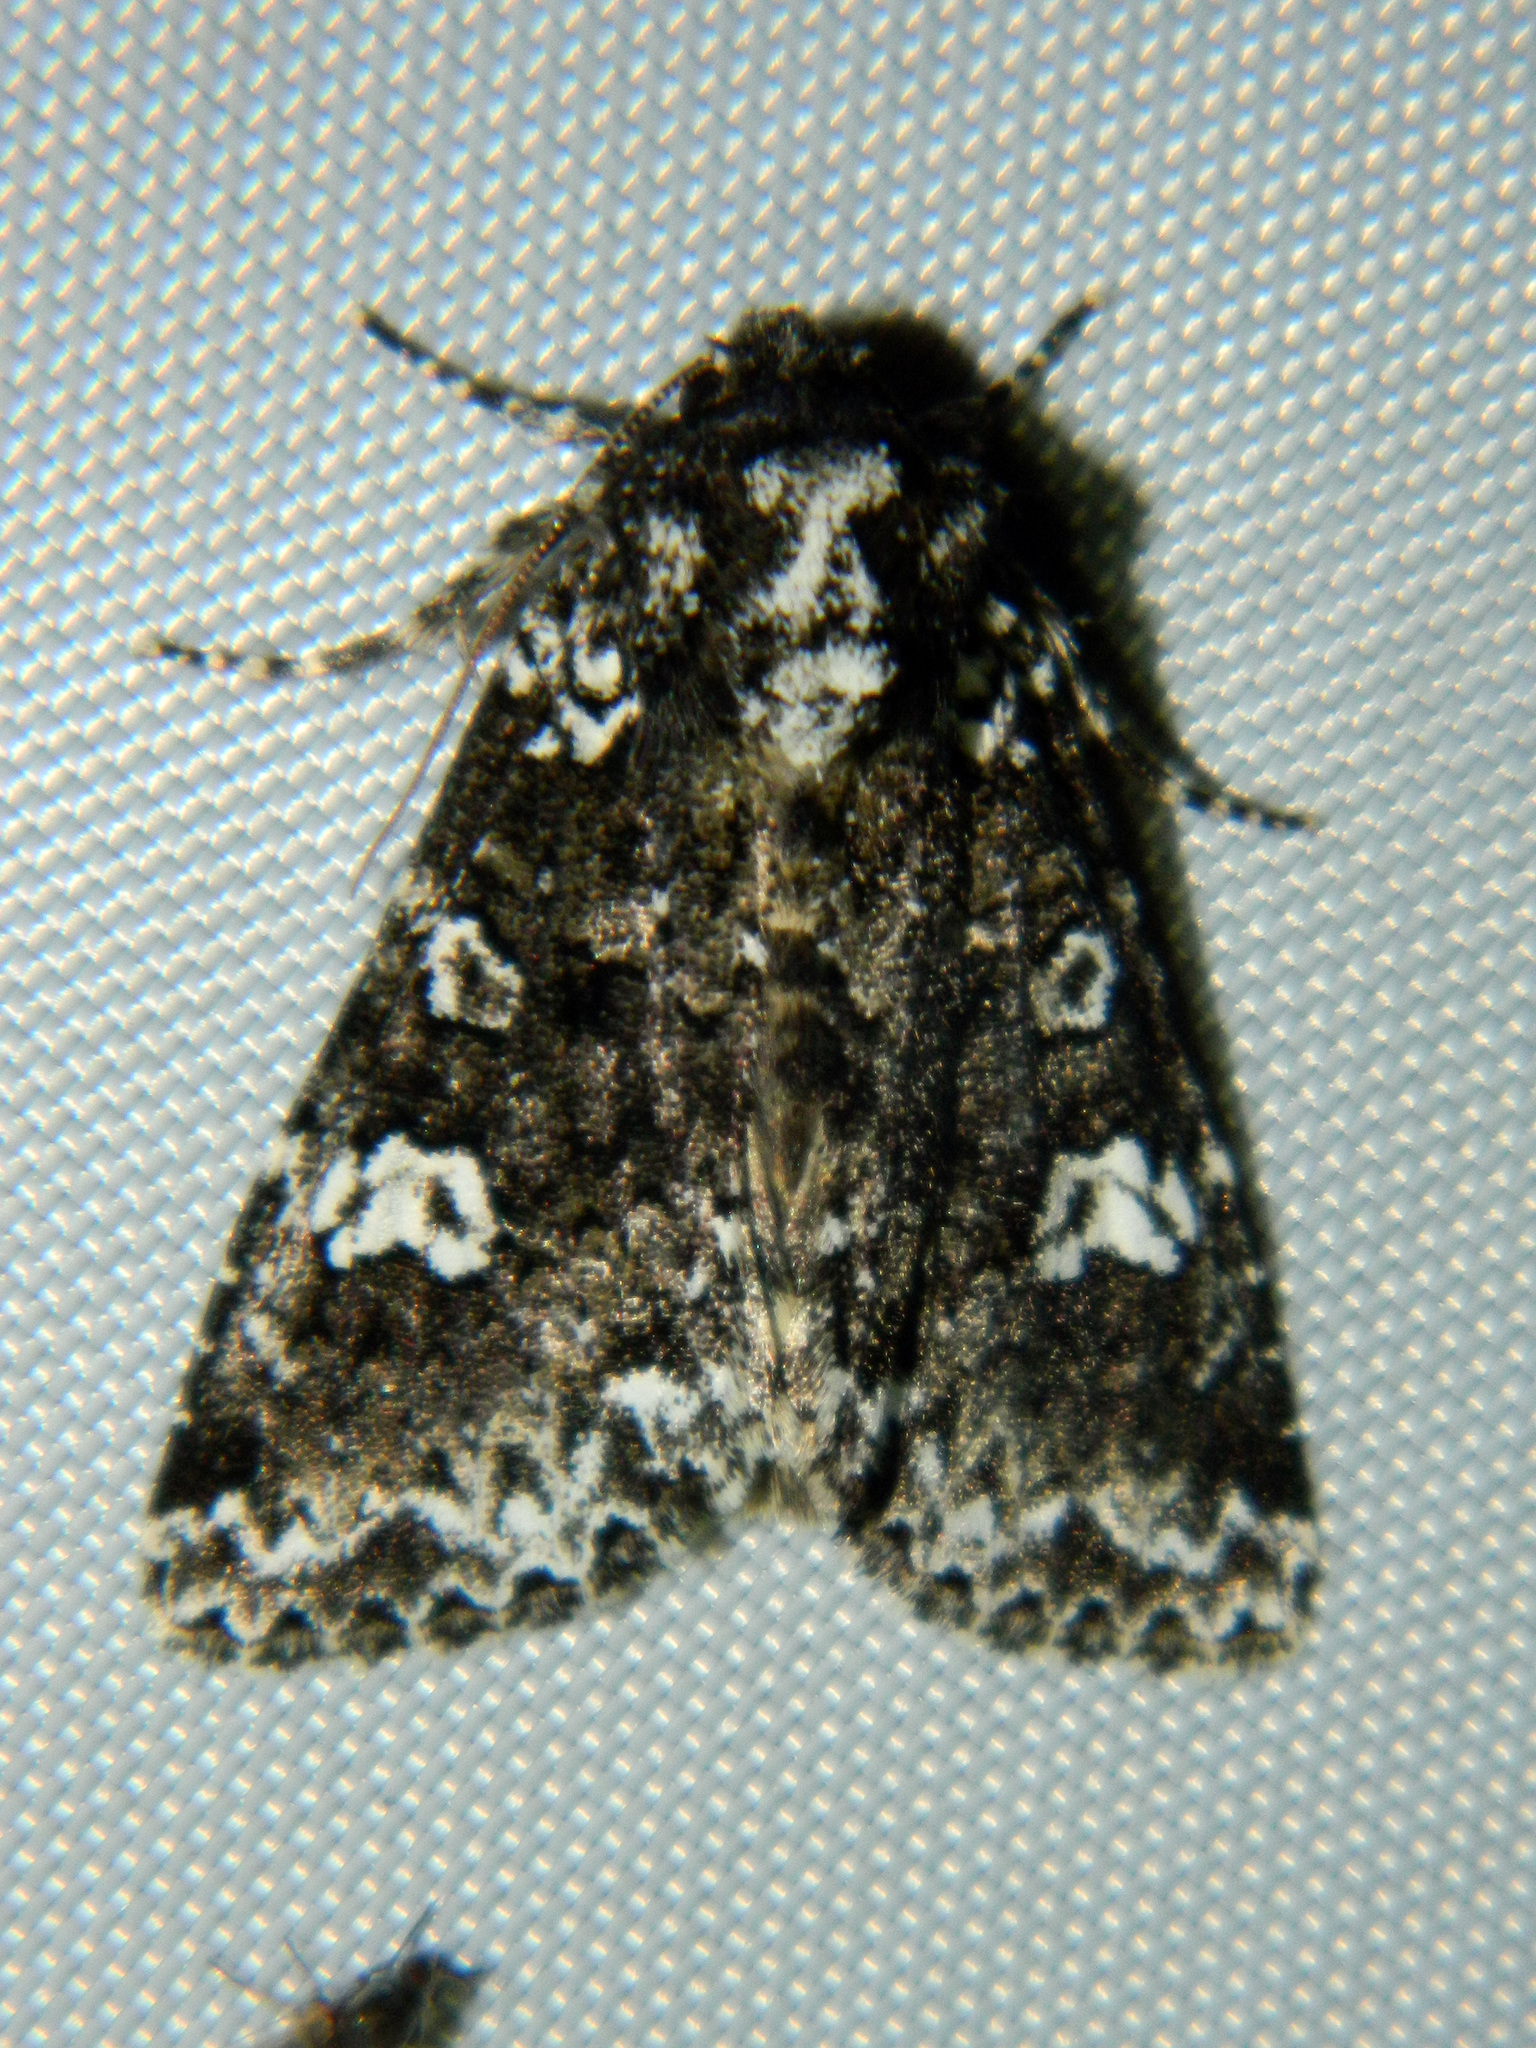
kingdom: Animalia
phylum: Arthropoda
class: Insecta
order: Lepidoptera
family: Noctuidae
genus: Melanchra
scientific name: Melanchra adjuncta
